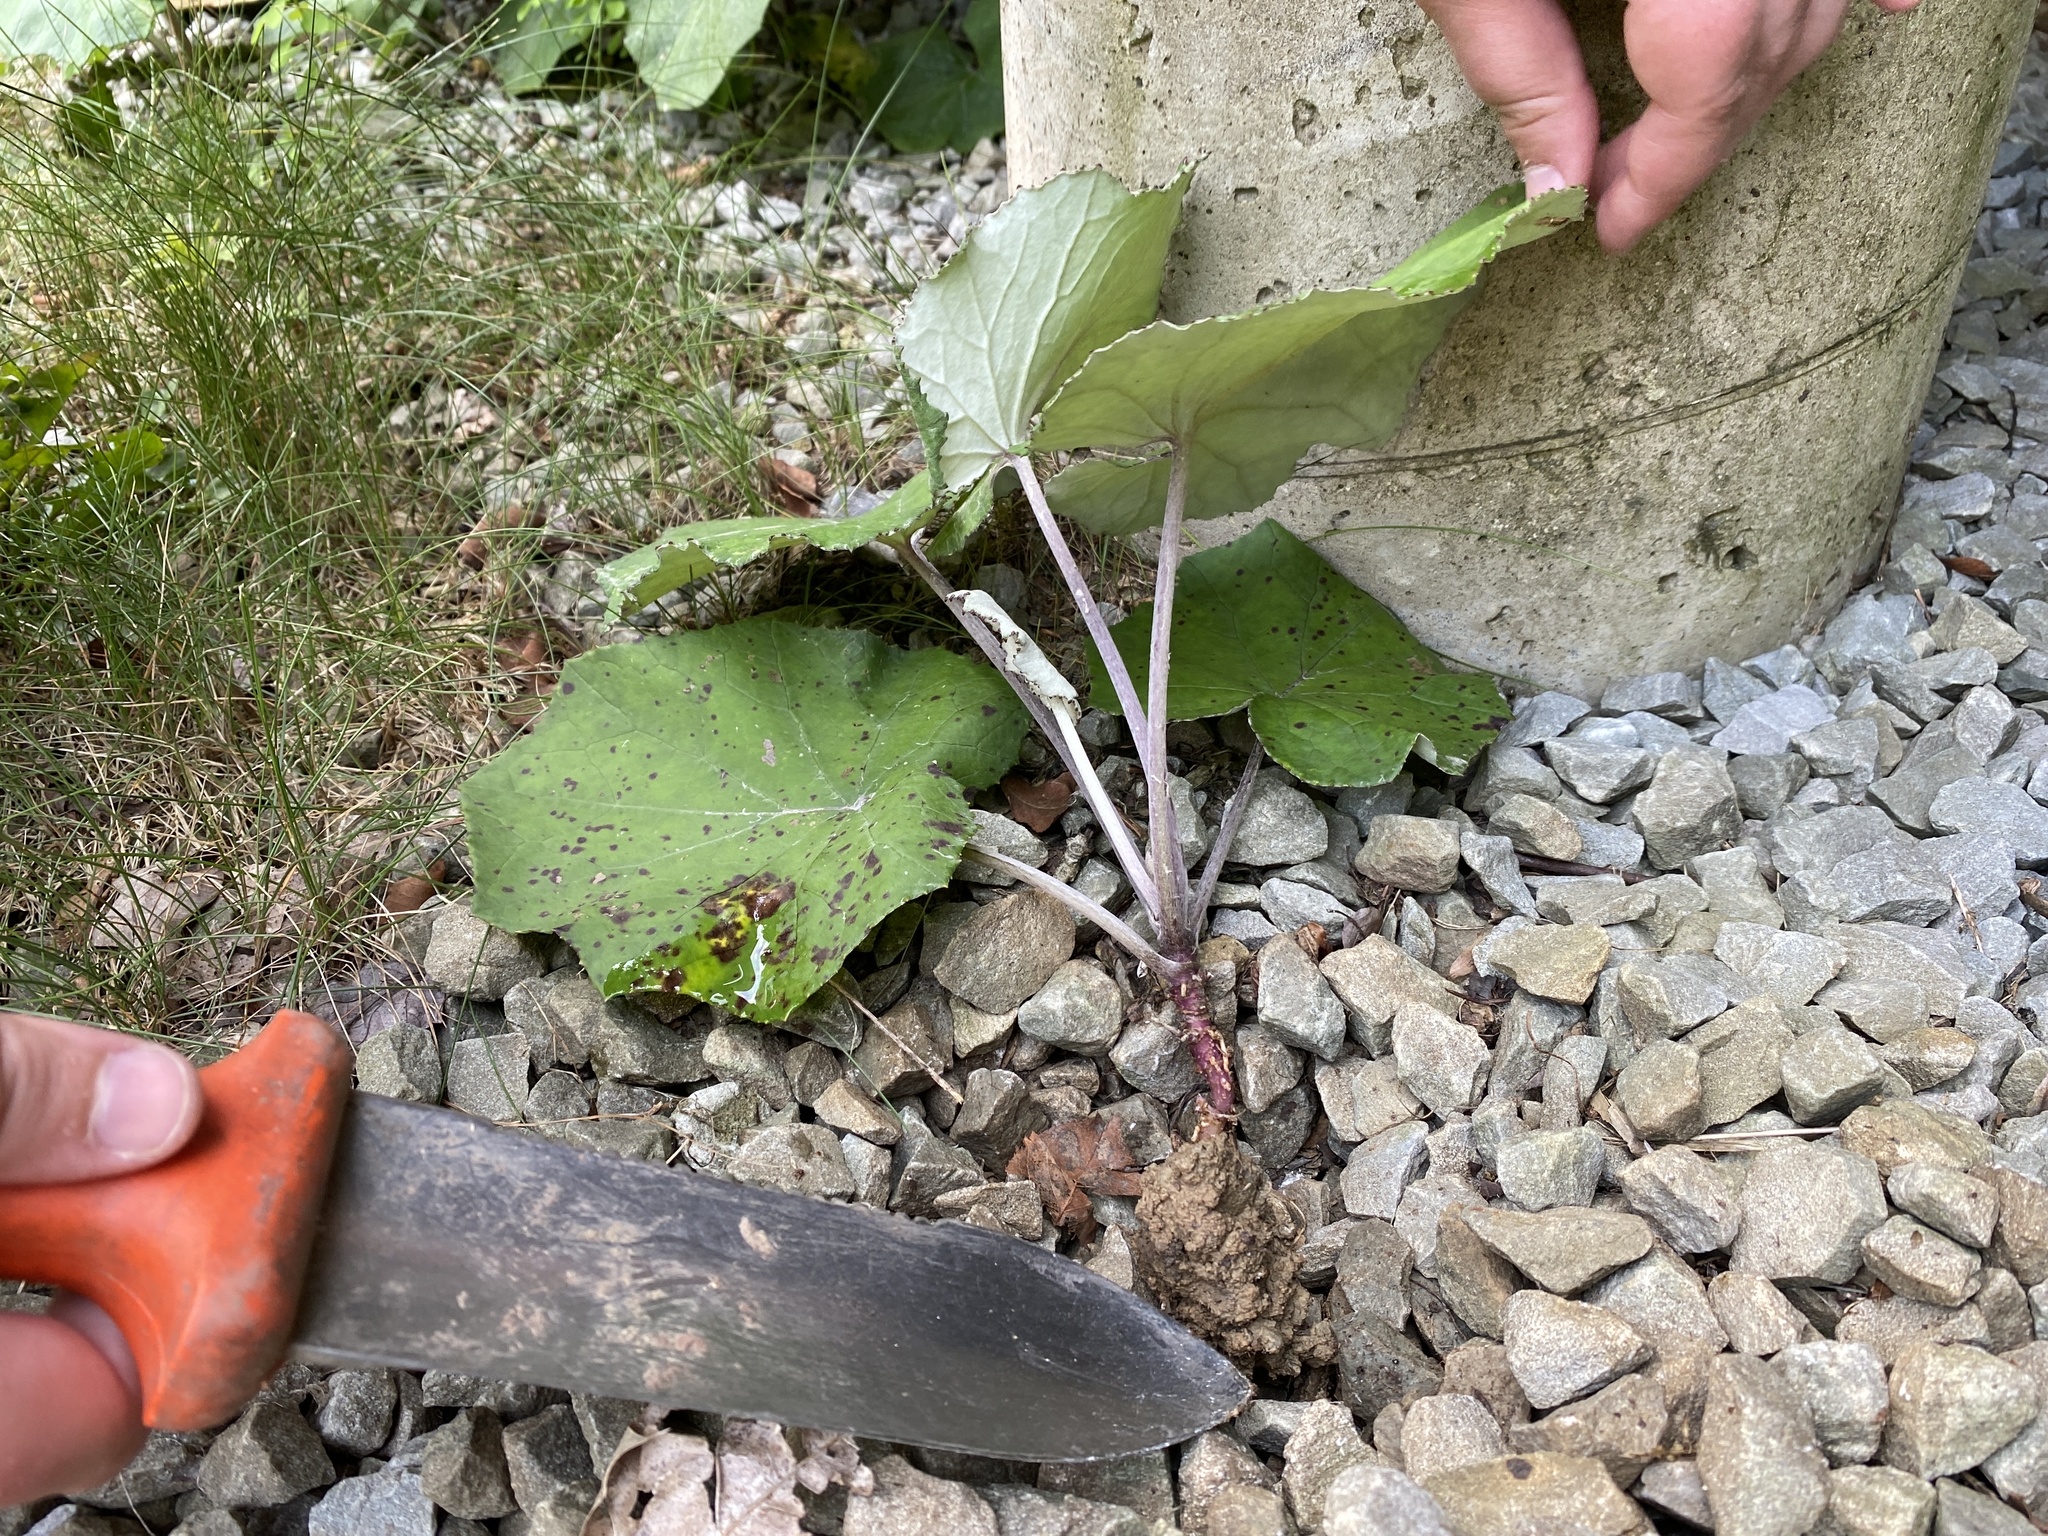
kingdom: Plantae
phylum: Tracheophyta
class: Magnoliopsida
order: Asterales
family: Asteraceae
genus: Tussilago
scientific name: Tussilago farfara
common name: Coltsfoot
